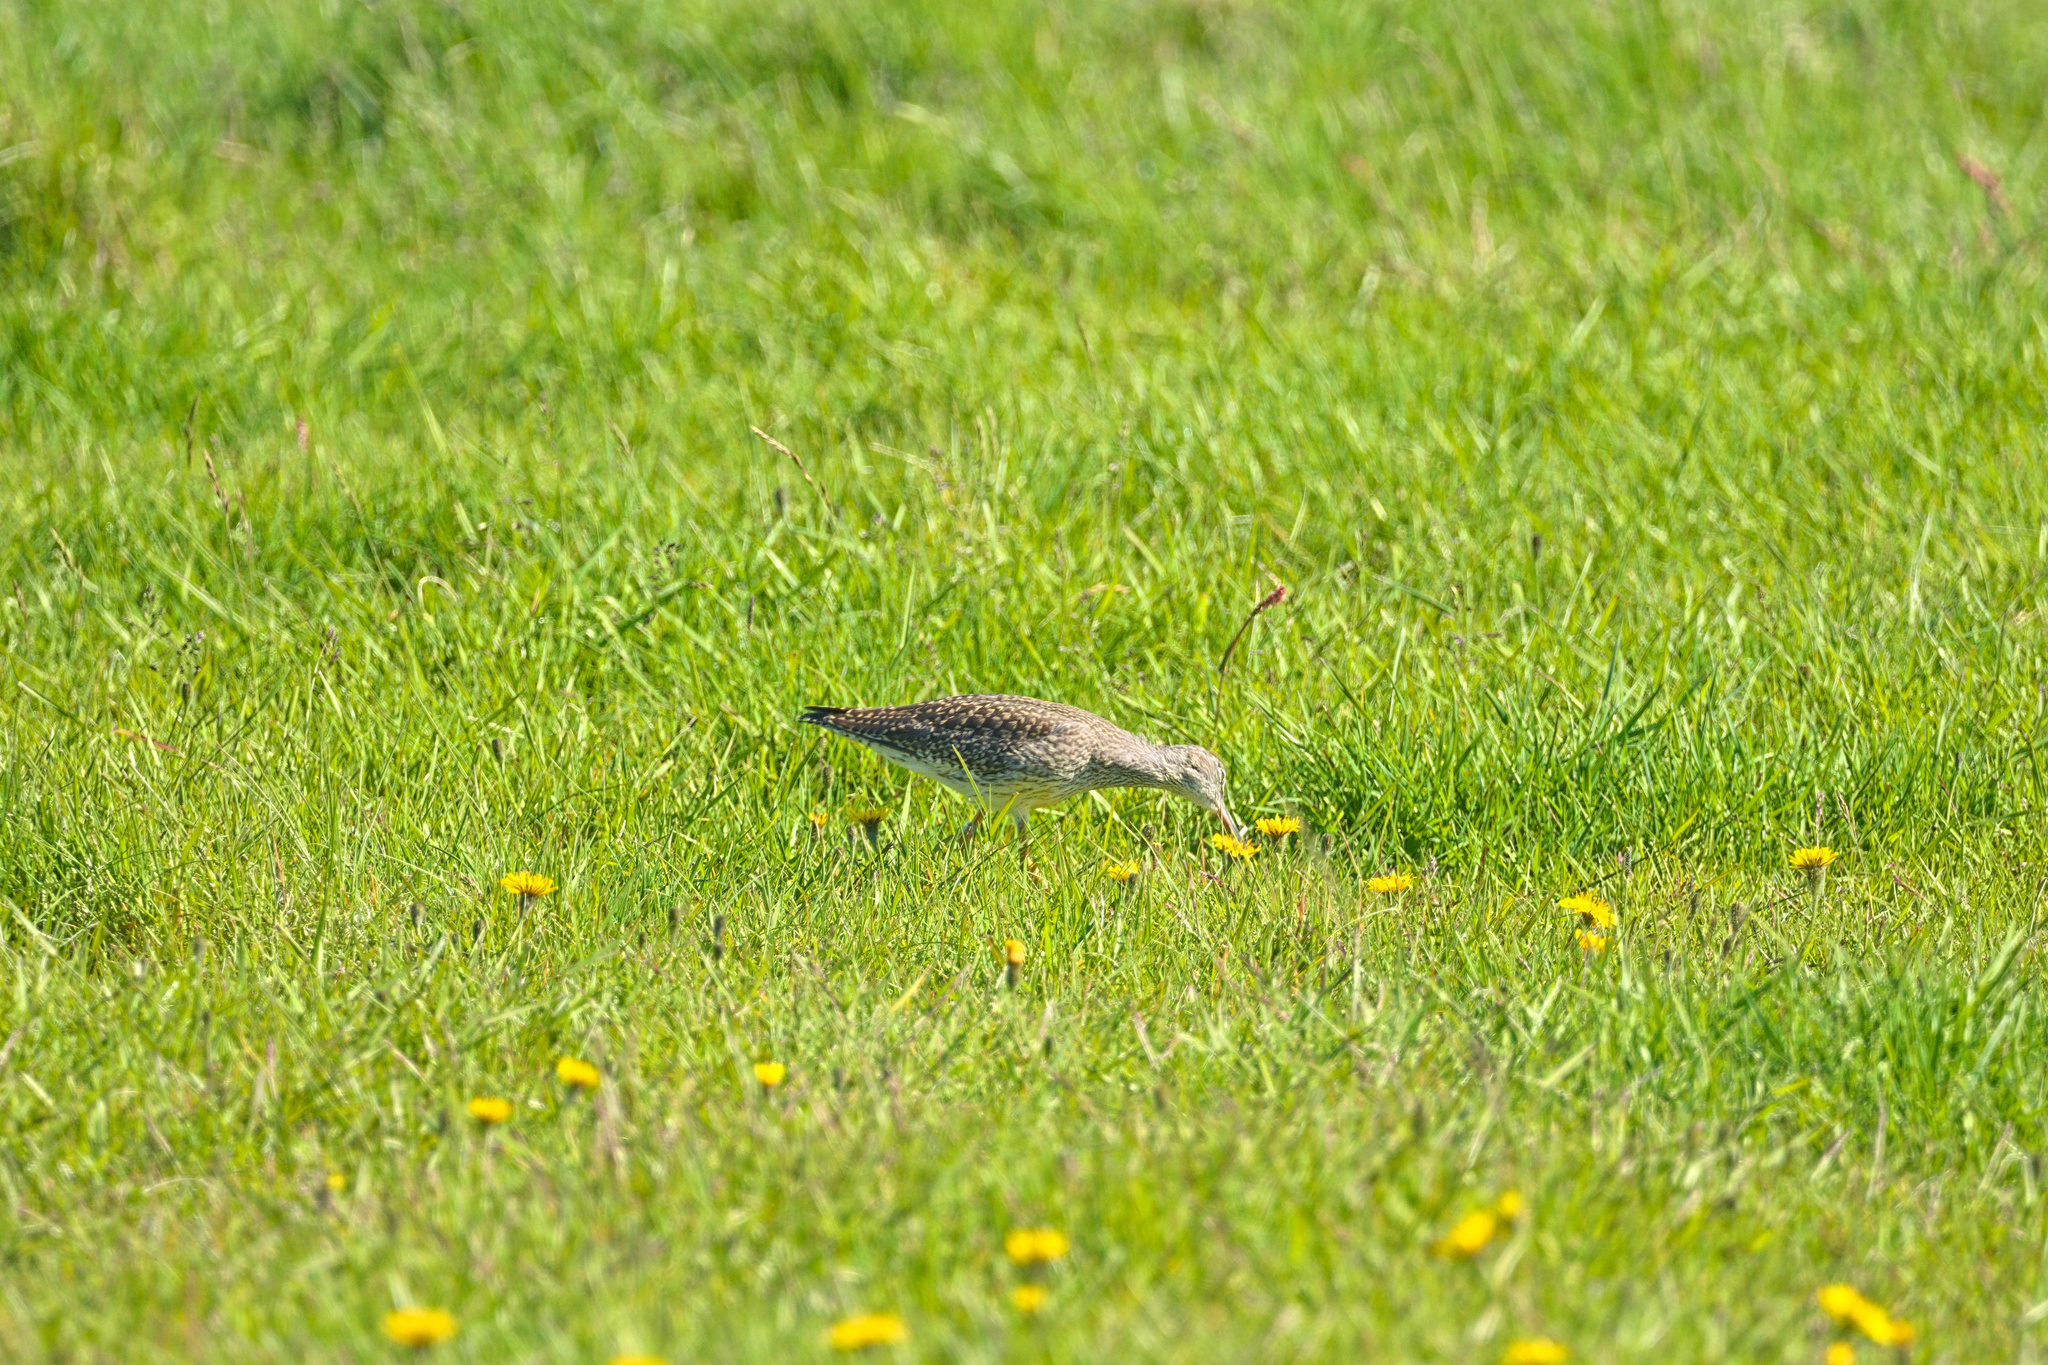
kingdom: Animalia
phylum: Chordata
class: Aves
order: Charadriiformes
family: Scolopacidae
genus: Tringa
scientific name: Tringa totanus
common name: Common redshank
